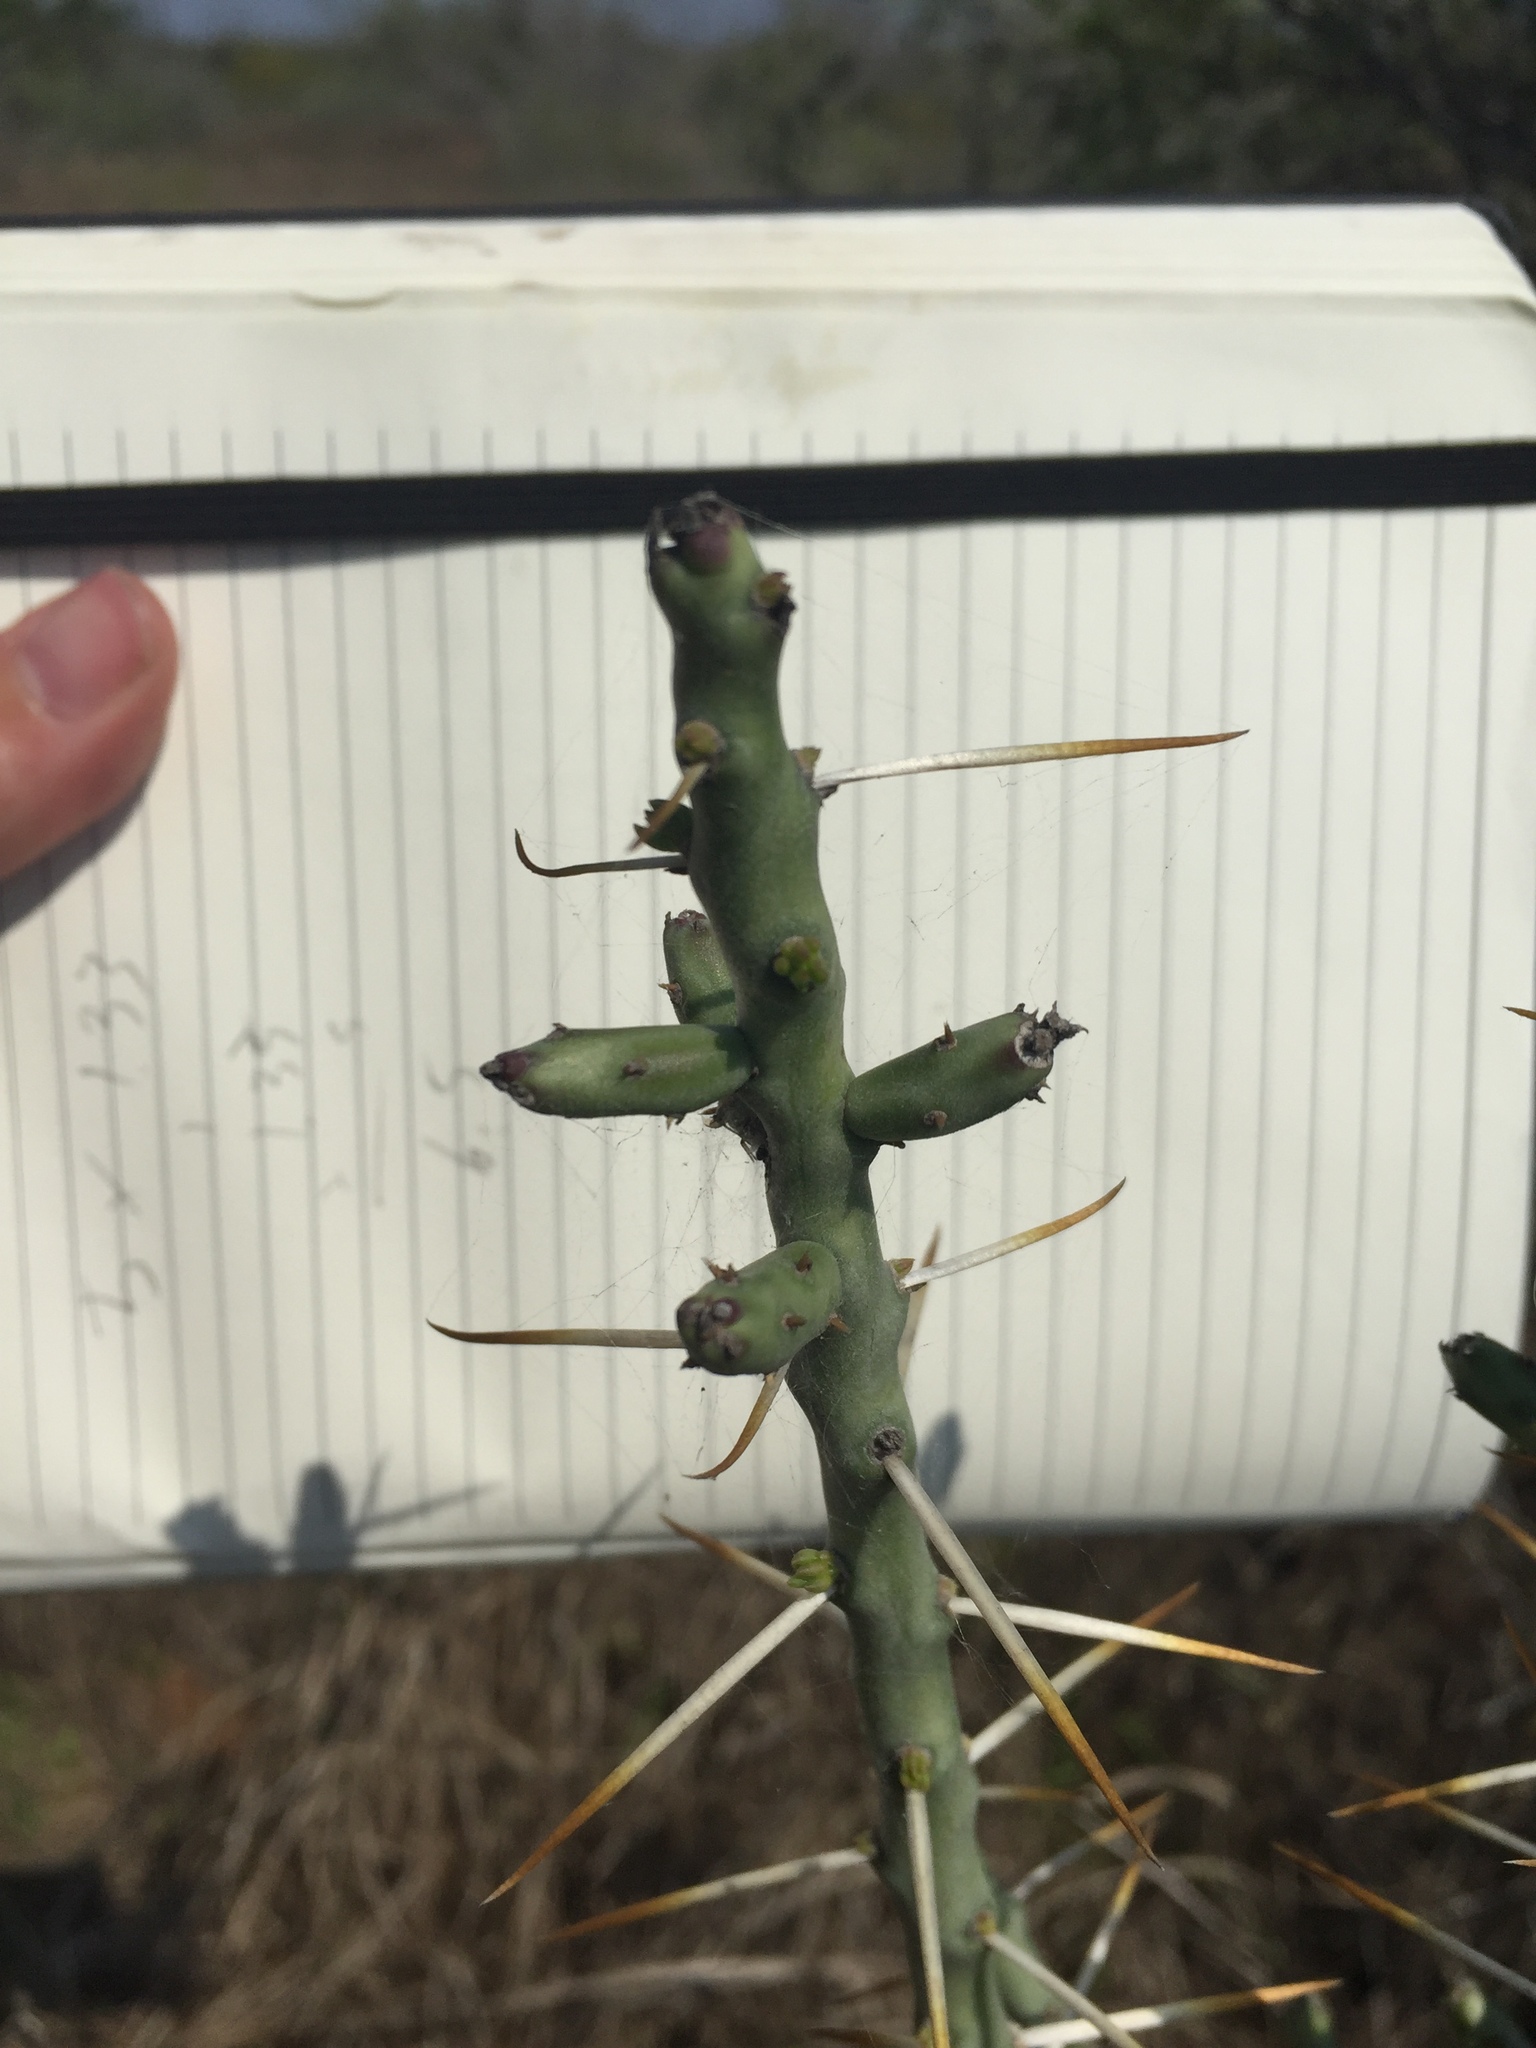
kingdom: Plantae
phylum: Tracheophyta
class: Magnoliopsida
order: Caryophyllales
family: Cactaceae
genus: Cylindropuntia
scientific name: Cylindropuntia leptocaulis
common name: Christmas cactus
